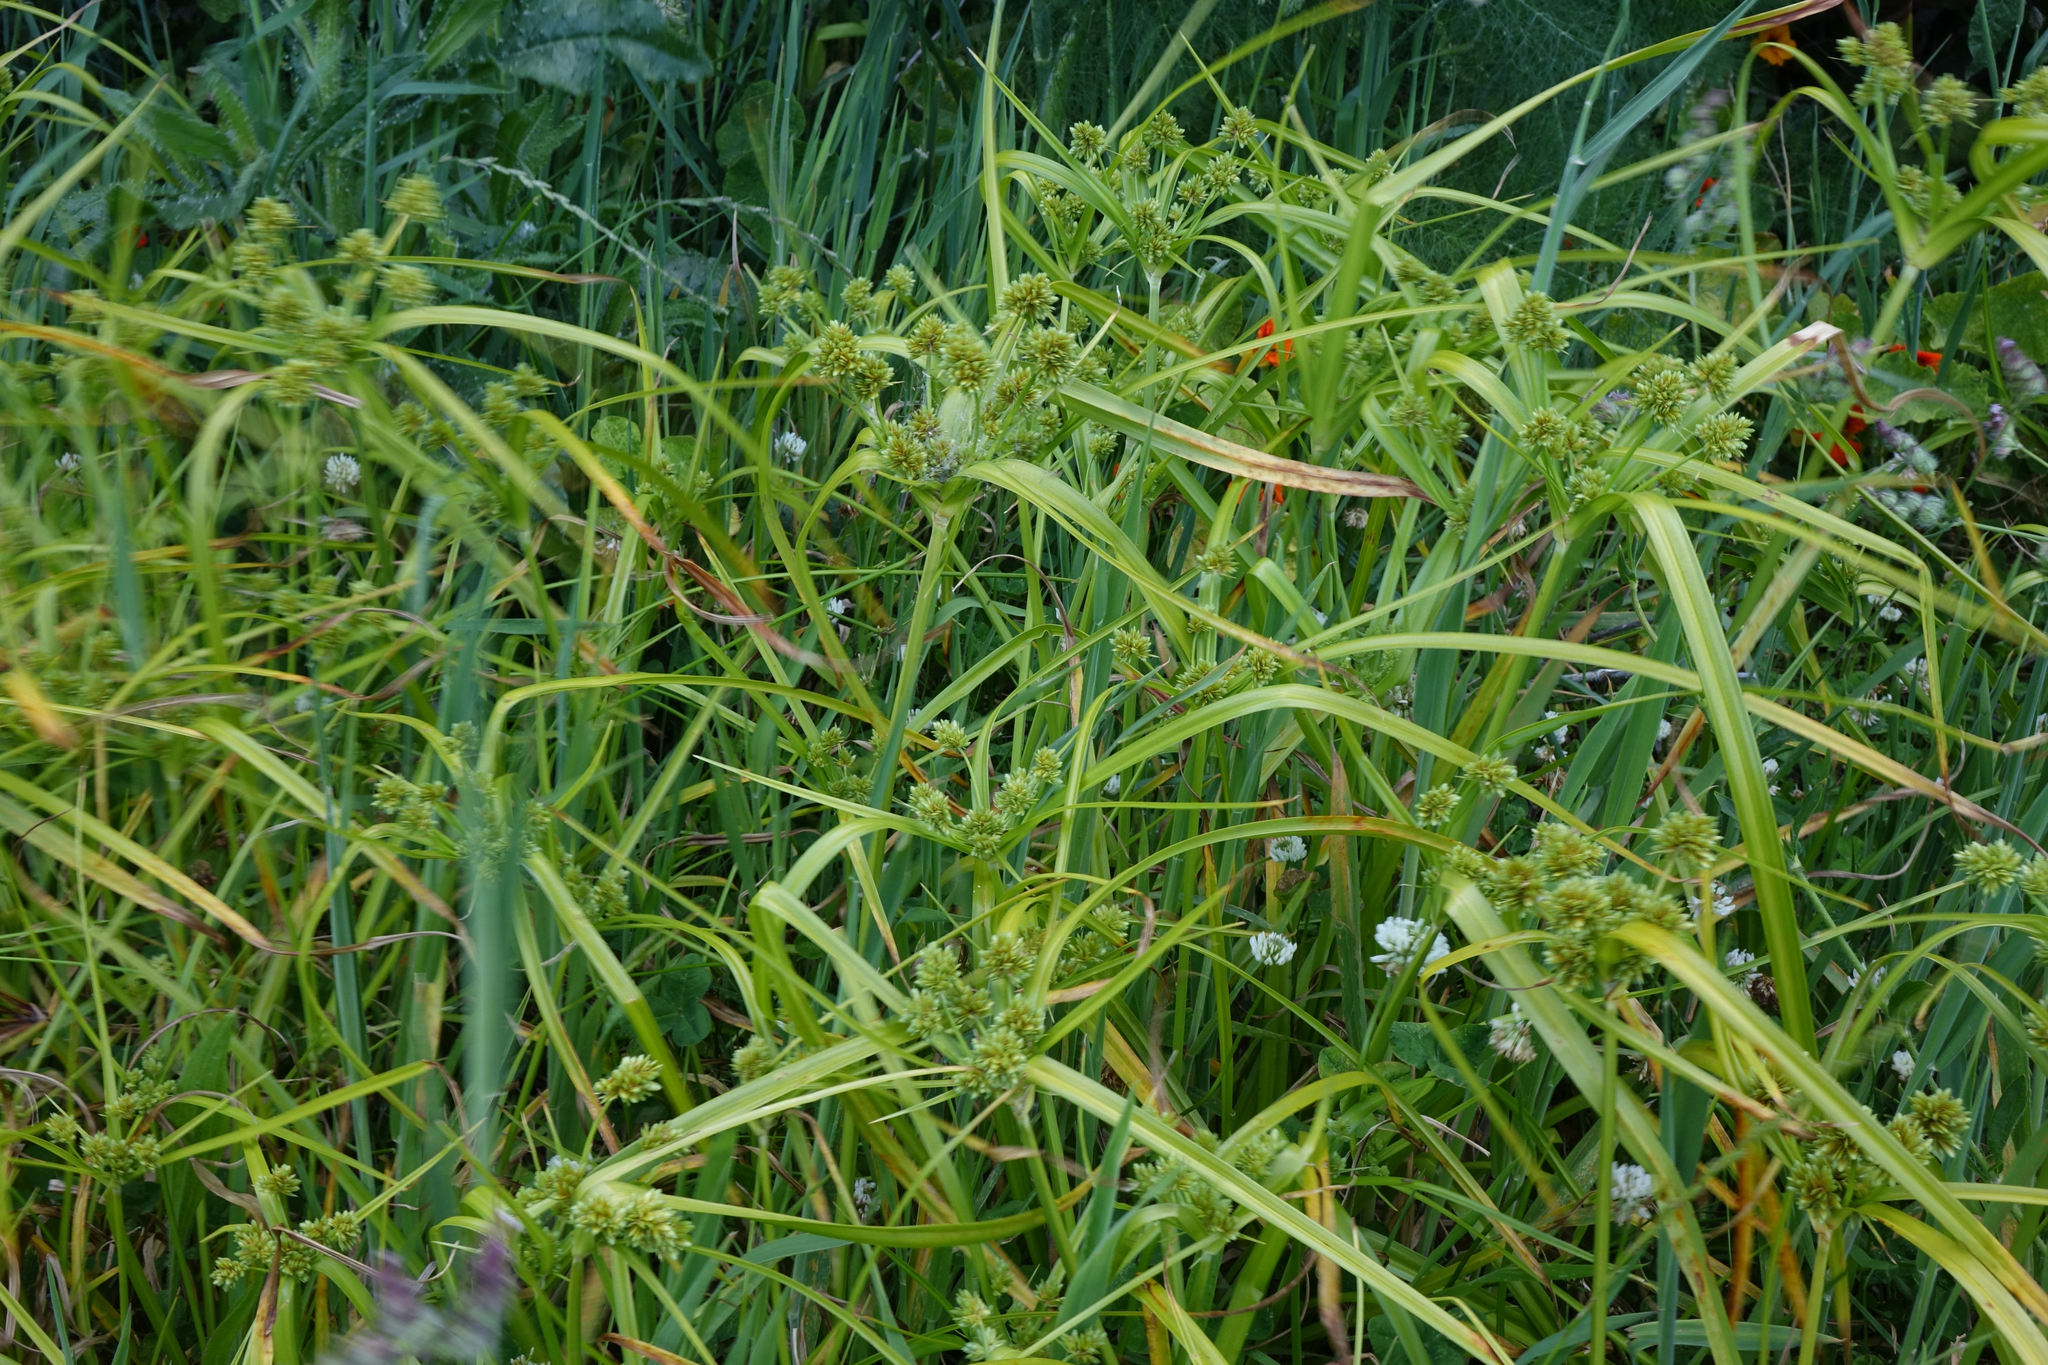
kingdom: Plantae
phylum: Tracheophyta
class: Liliopsida
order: Poales
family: Cyperaceae
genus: Cyperus
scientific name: Cyperus eragrostis
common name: Tall flatsedge
